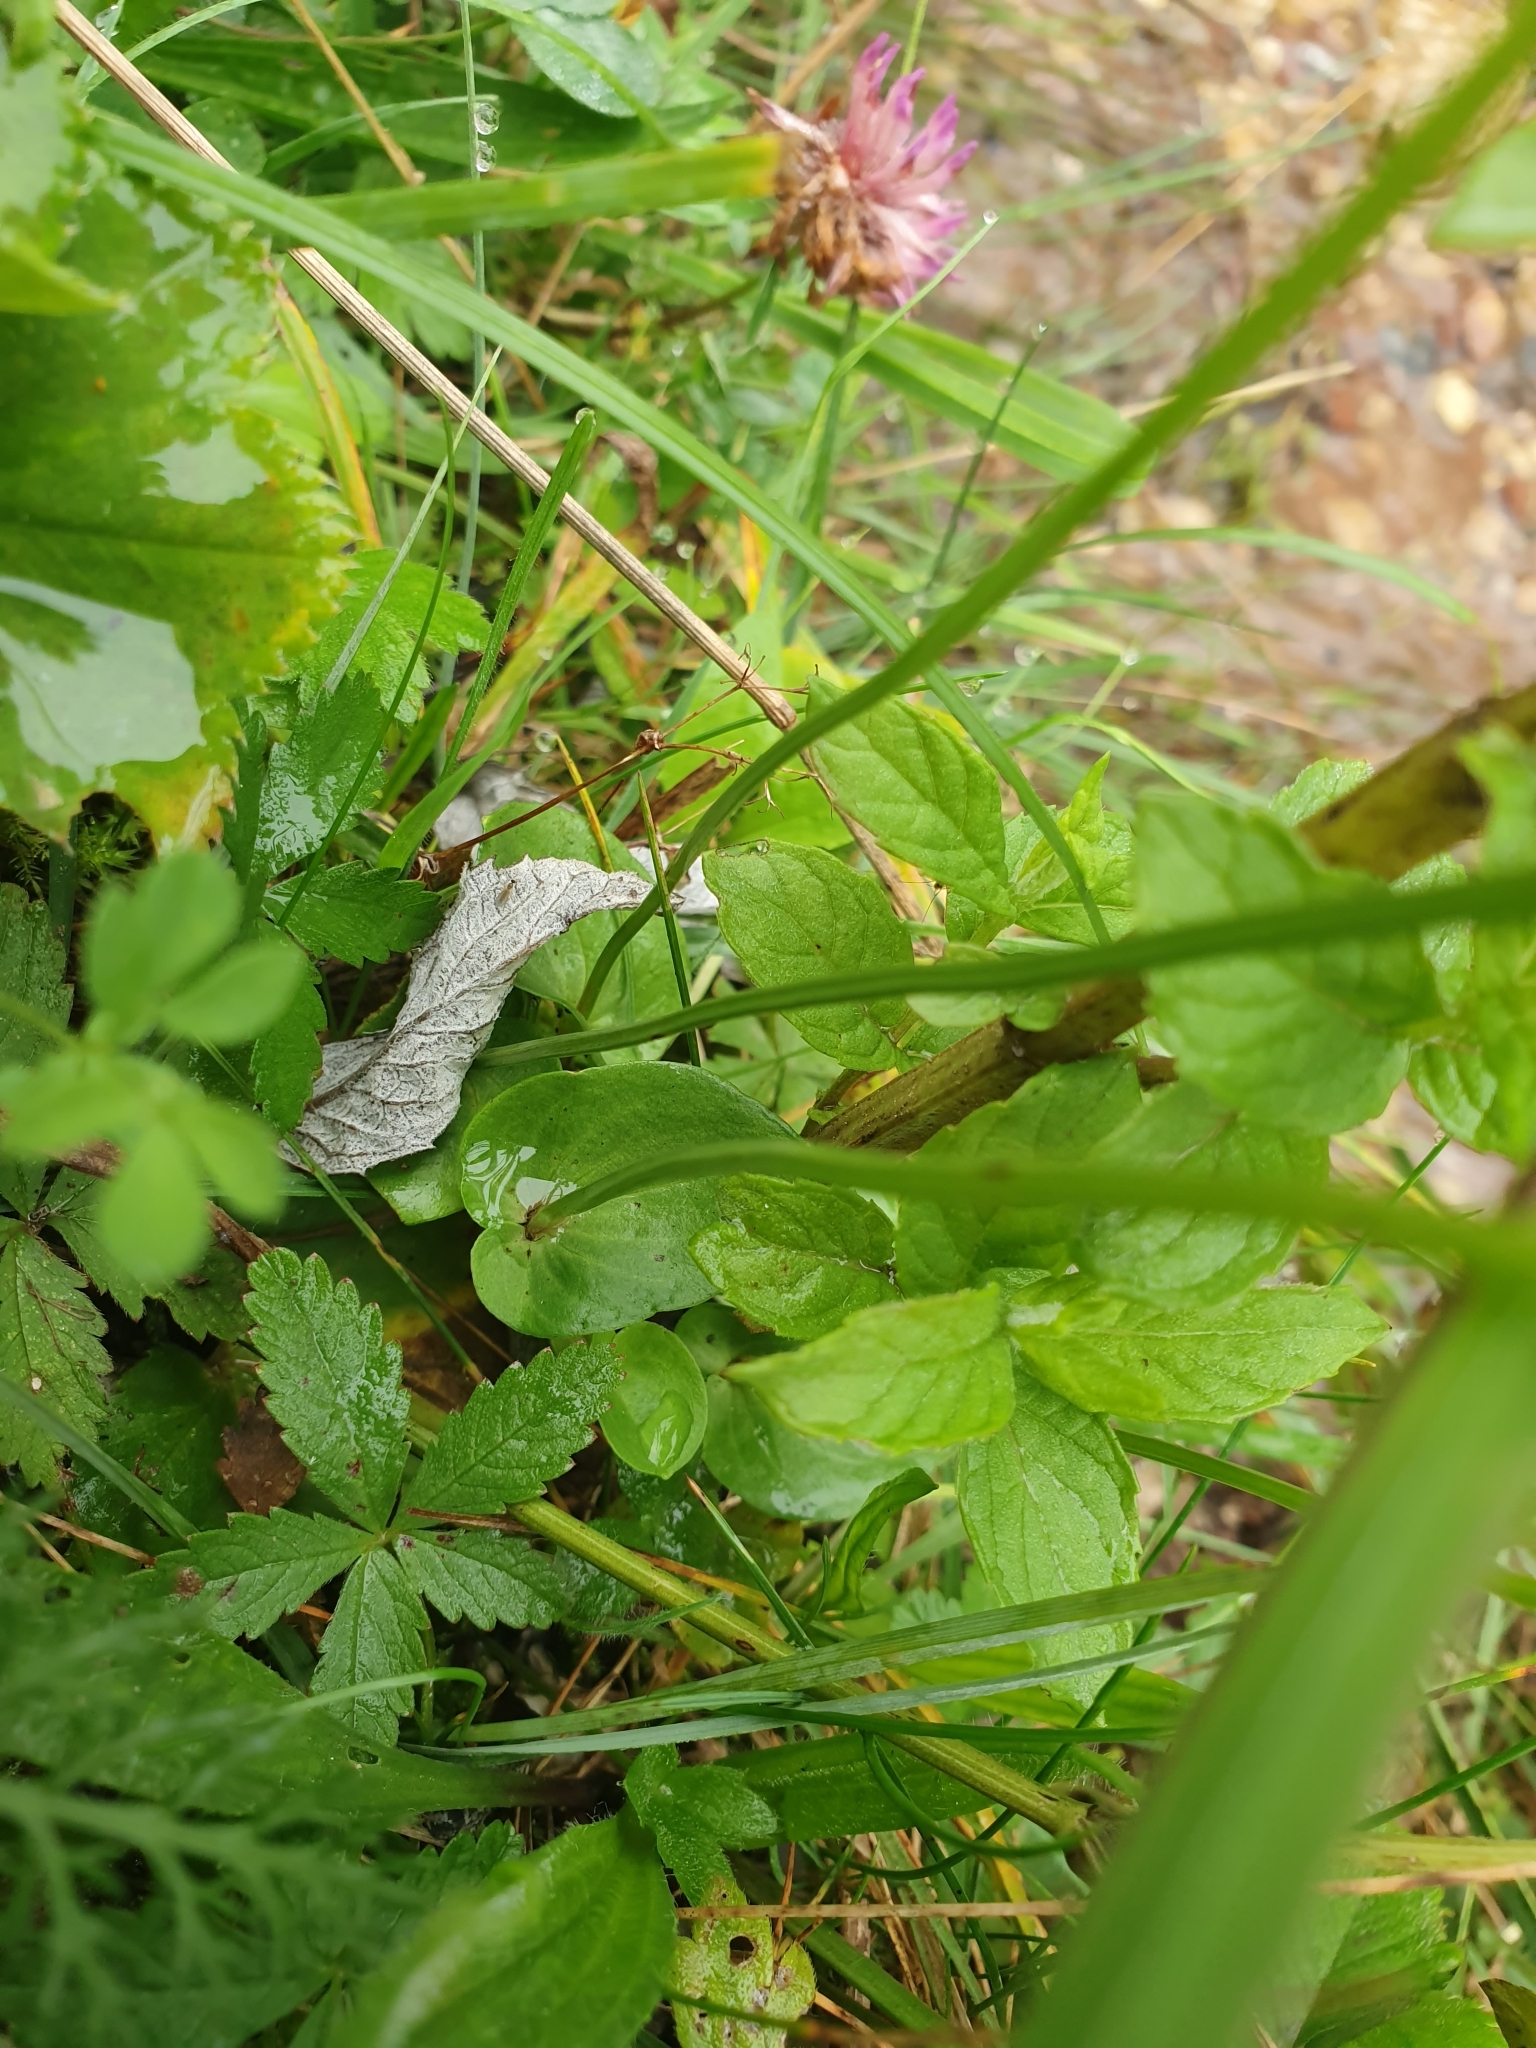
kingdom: Plantae
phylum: Tracheophyta
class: Magnoliopsida
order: Celastrales
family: Parnassiaceae
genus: Parnassia
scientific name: Parnassia palustris
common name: Grass-of-parnassus
